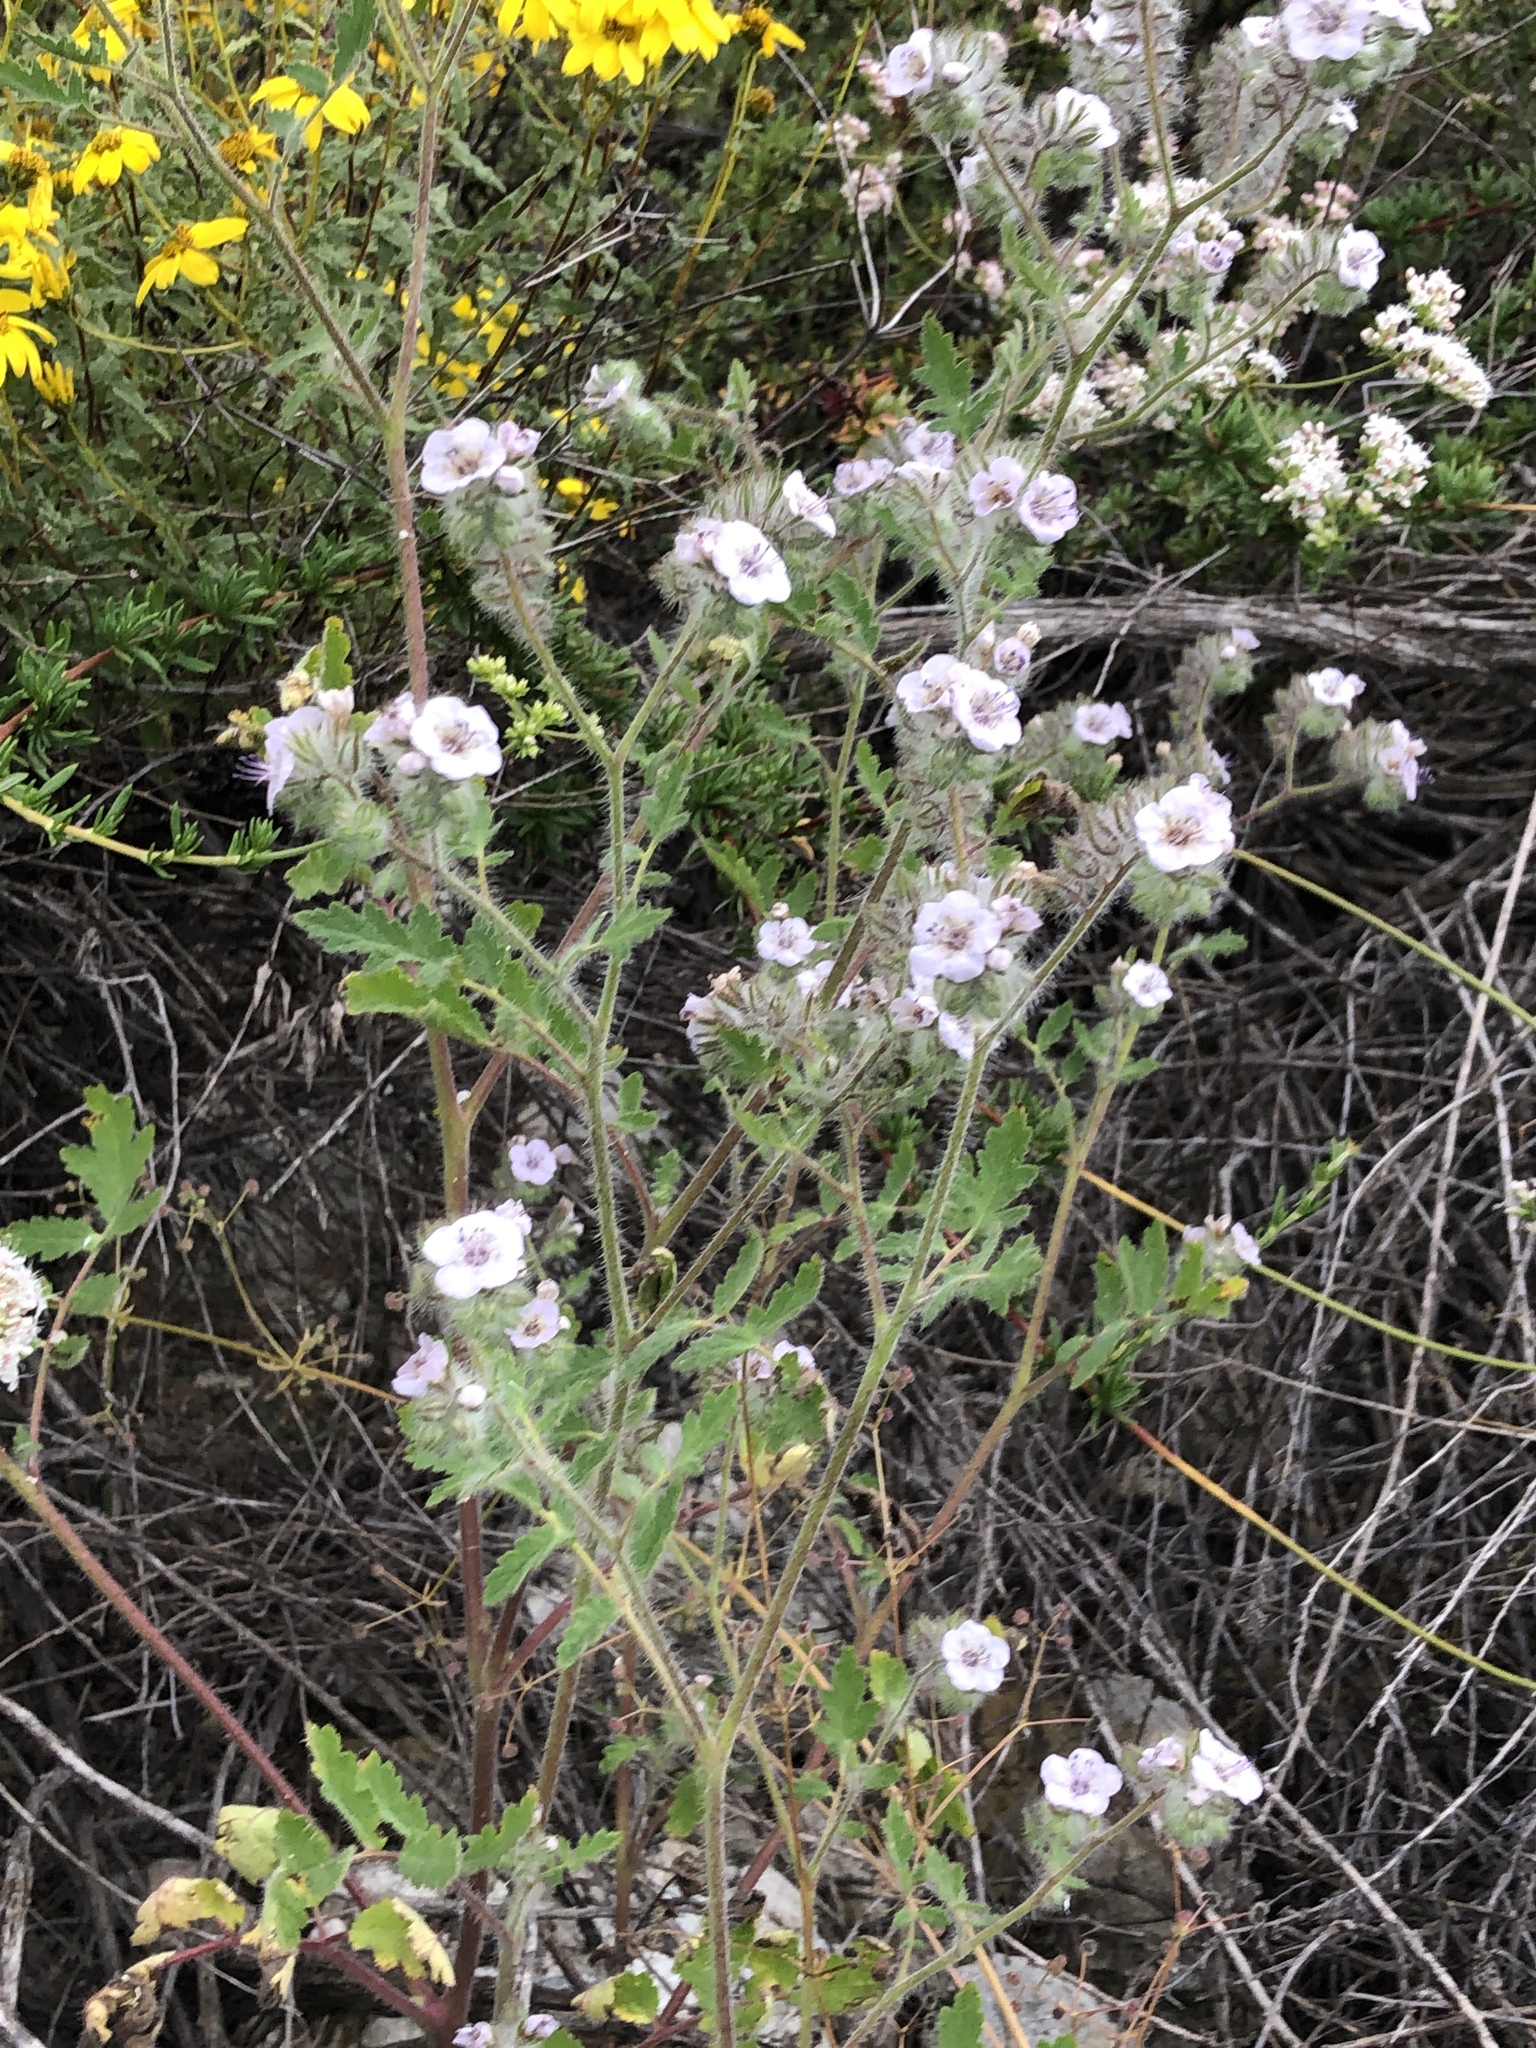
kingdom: Plantae
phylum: Tracheophyta
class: Magnoliopsida
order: Boraginales
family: Hydrophyllaceae
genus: Phacelia
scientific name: Phacelia cicutaria
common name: Caterpillar phacelia
